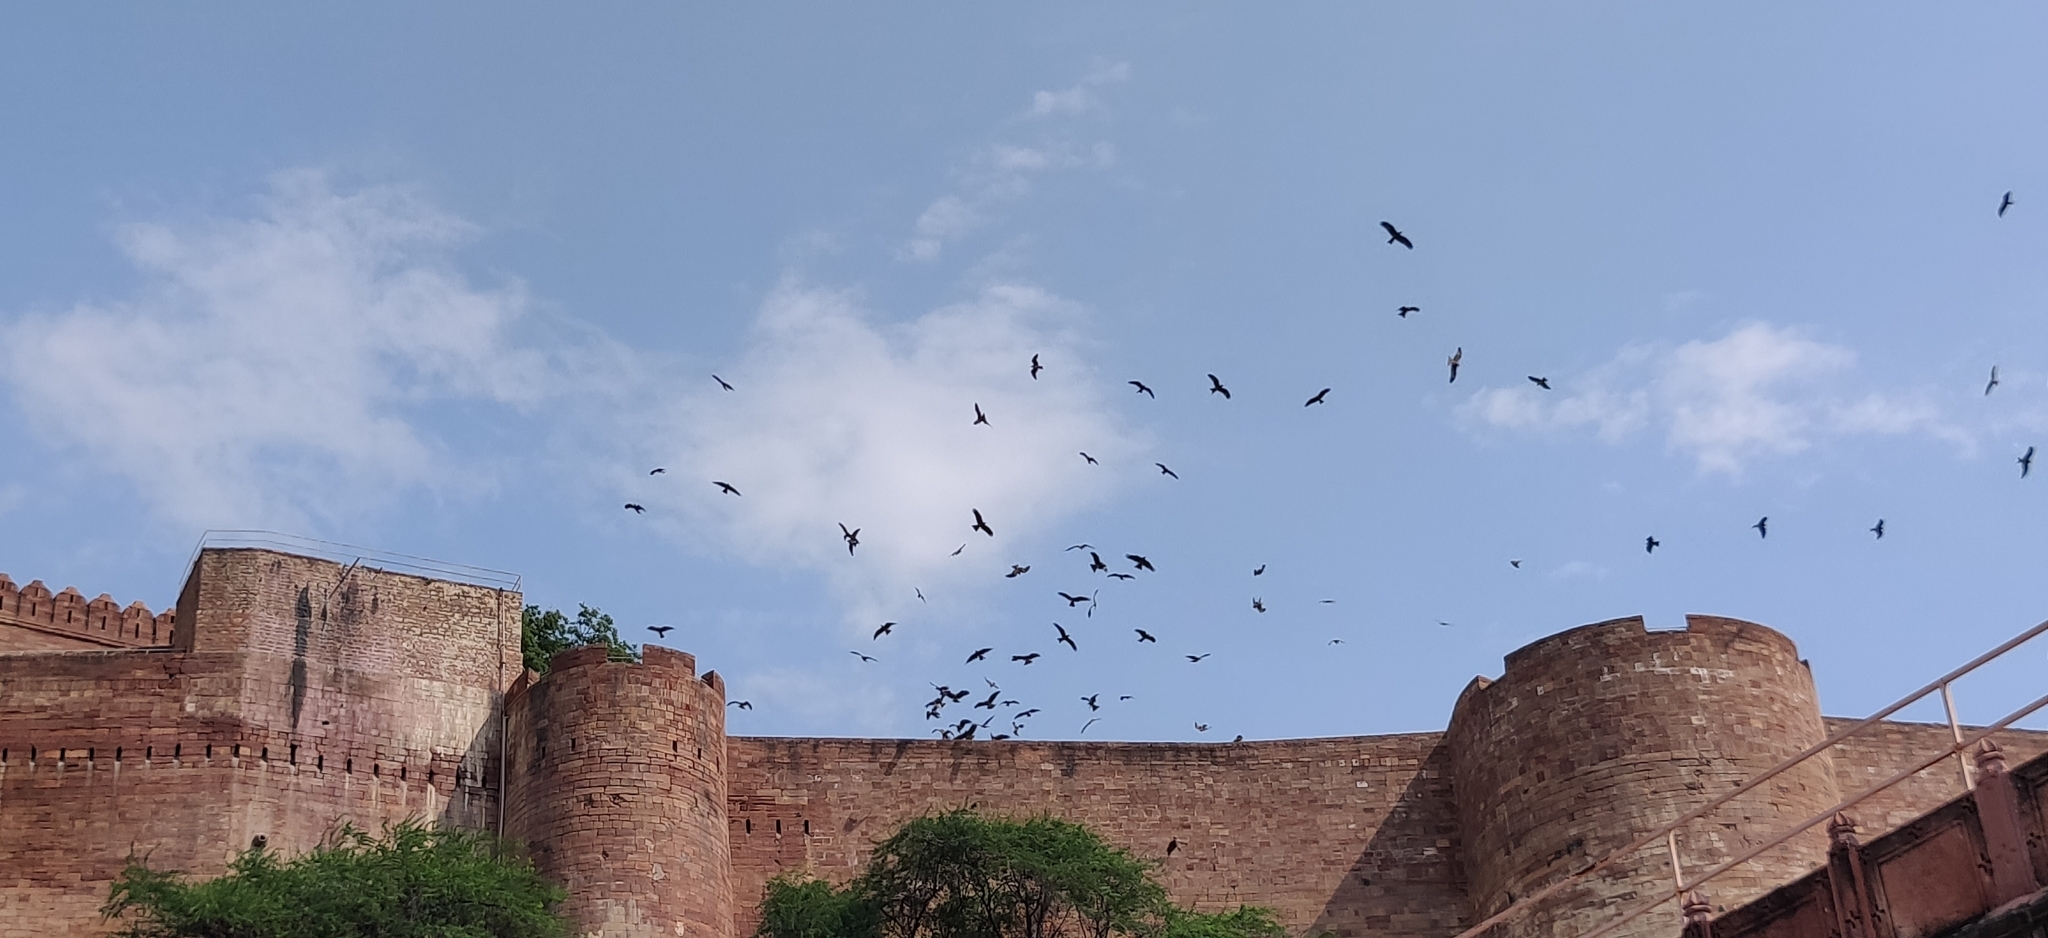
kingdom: Animalia
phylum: Chordata
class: Aves
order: Accipitriformes
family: Accipitridae
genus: Milvus
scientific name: Milvus migrans
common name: Black kite
